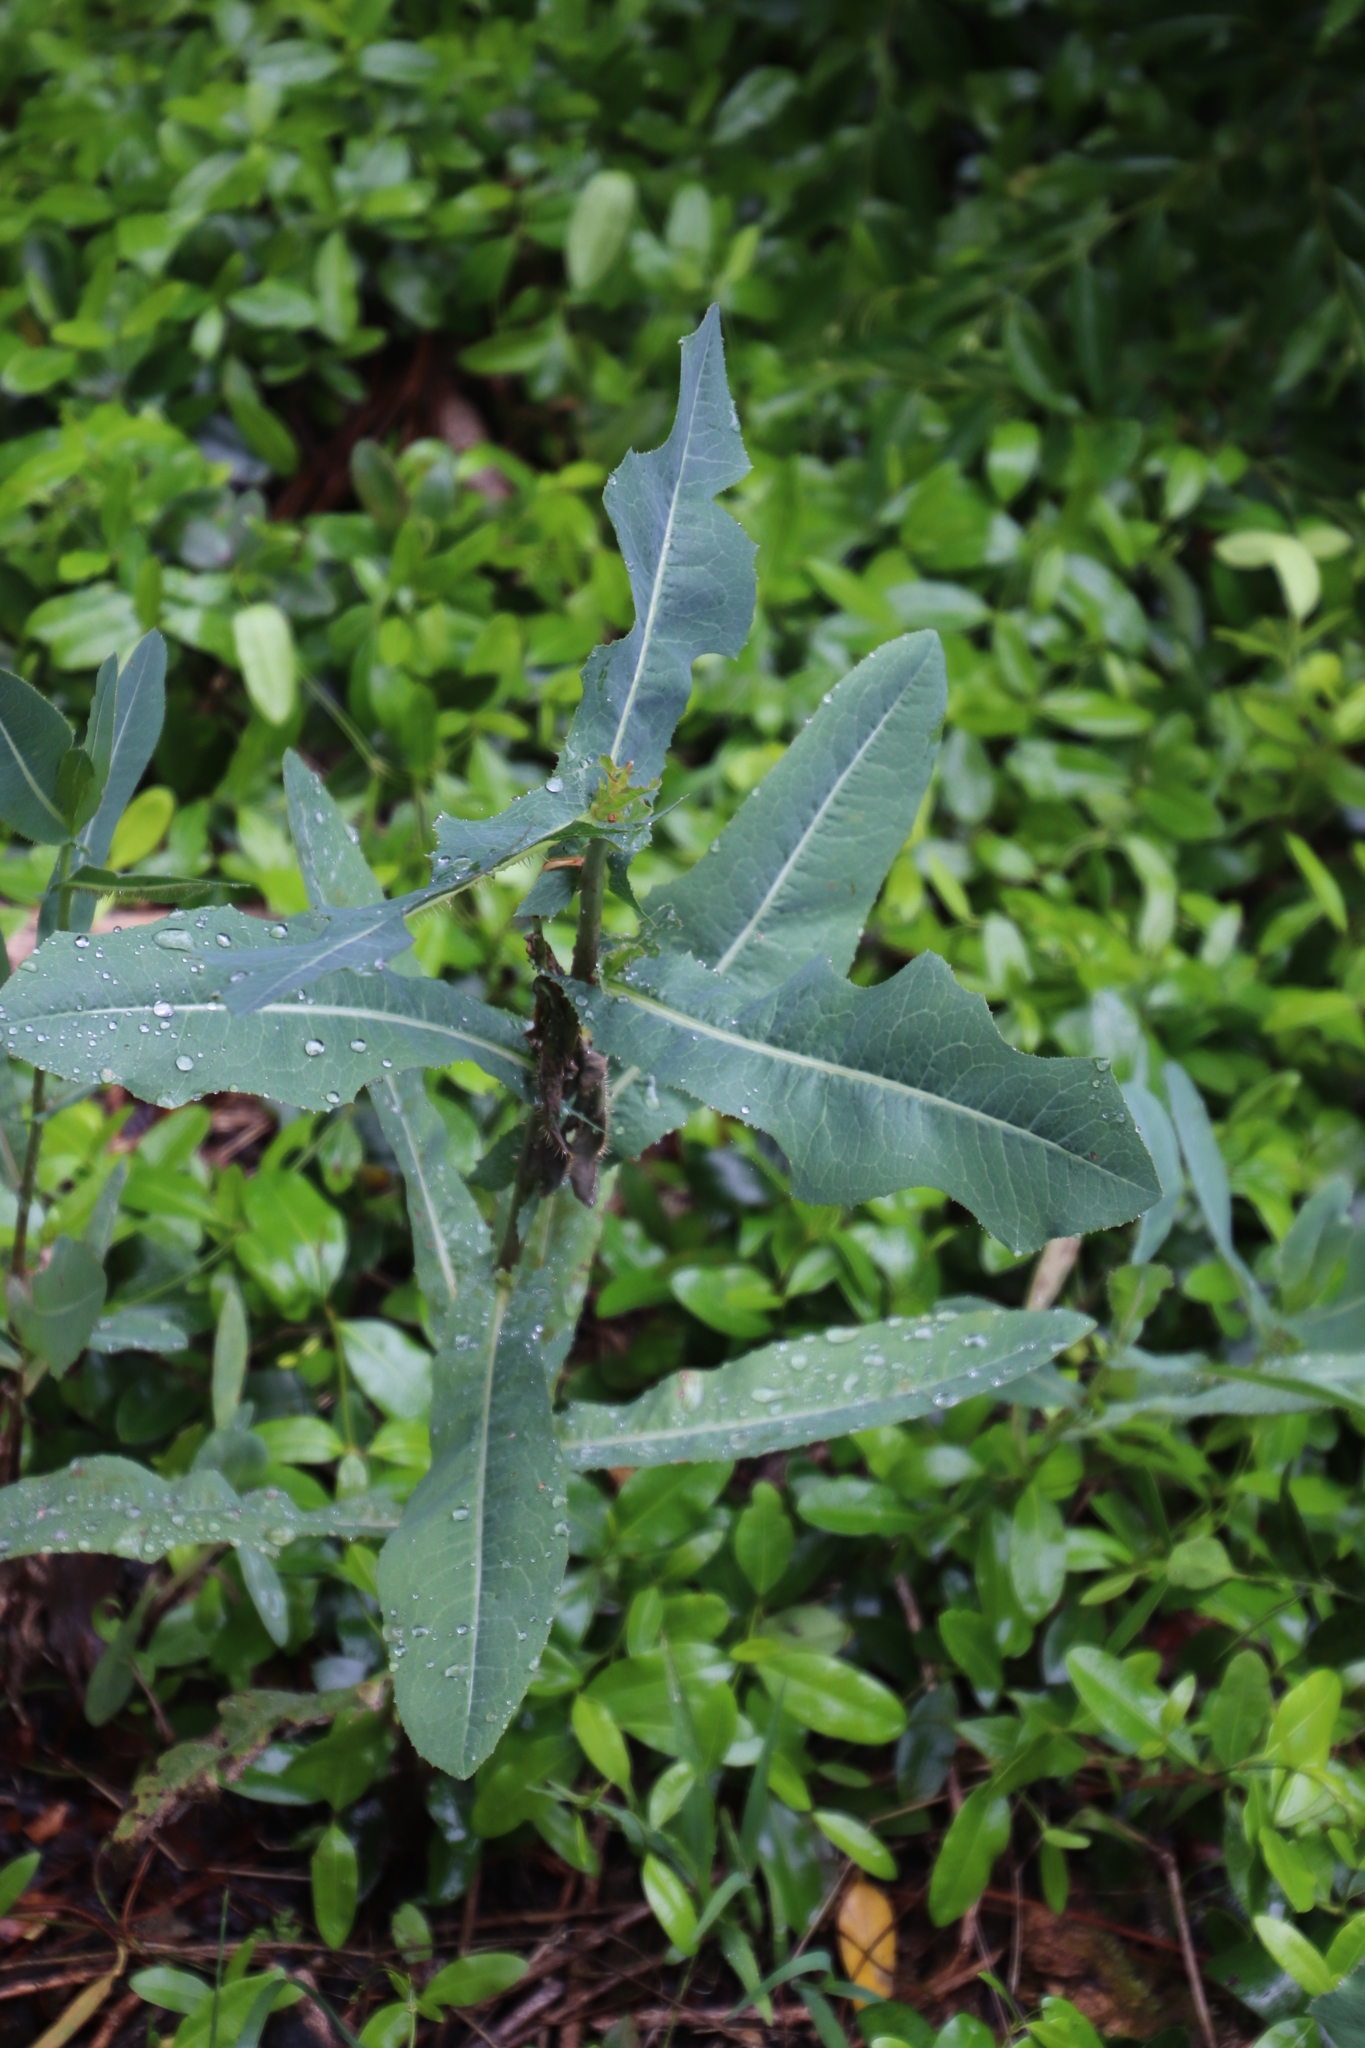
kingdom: Plantae
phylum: Tracheophyta
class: Magnoliopsida
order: Asterales
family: Asteraceae
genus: Lactuca
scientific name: Lactuca serriola
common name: Prickly lettuce
